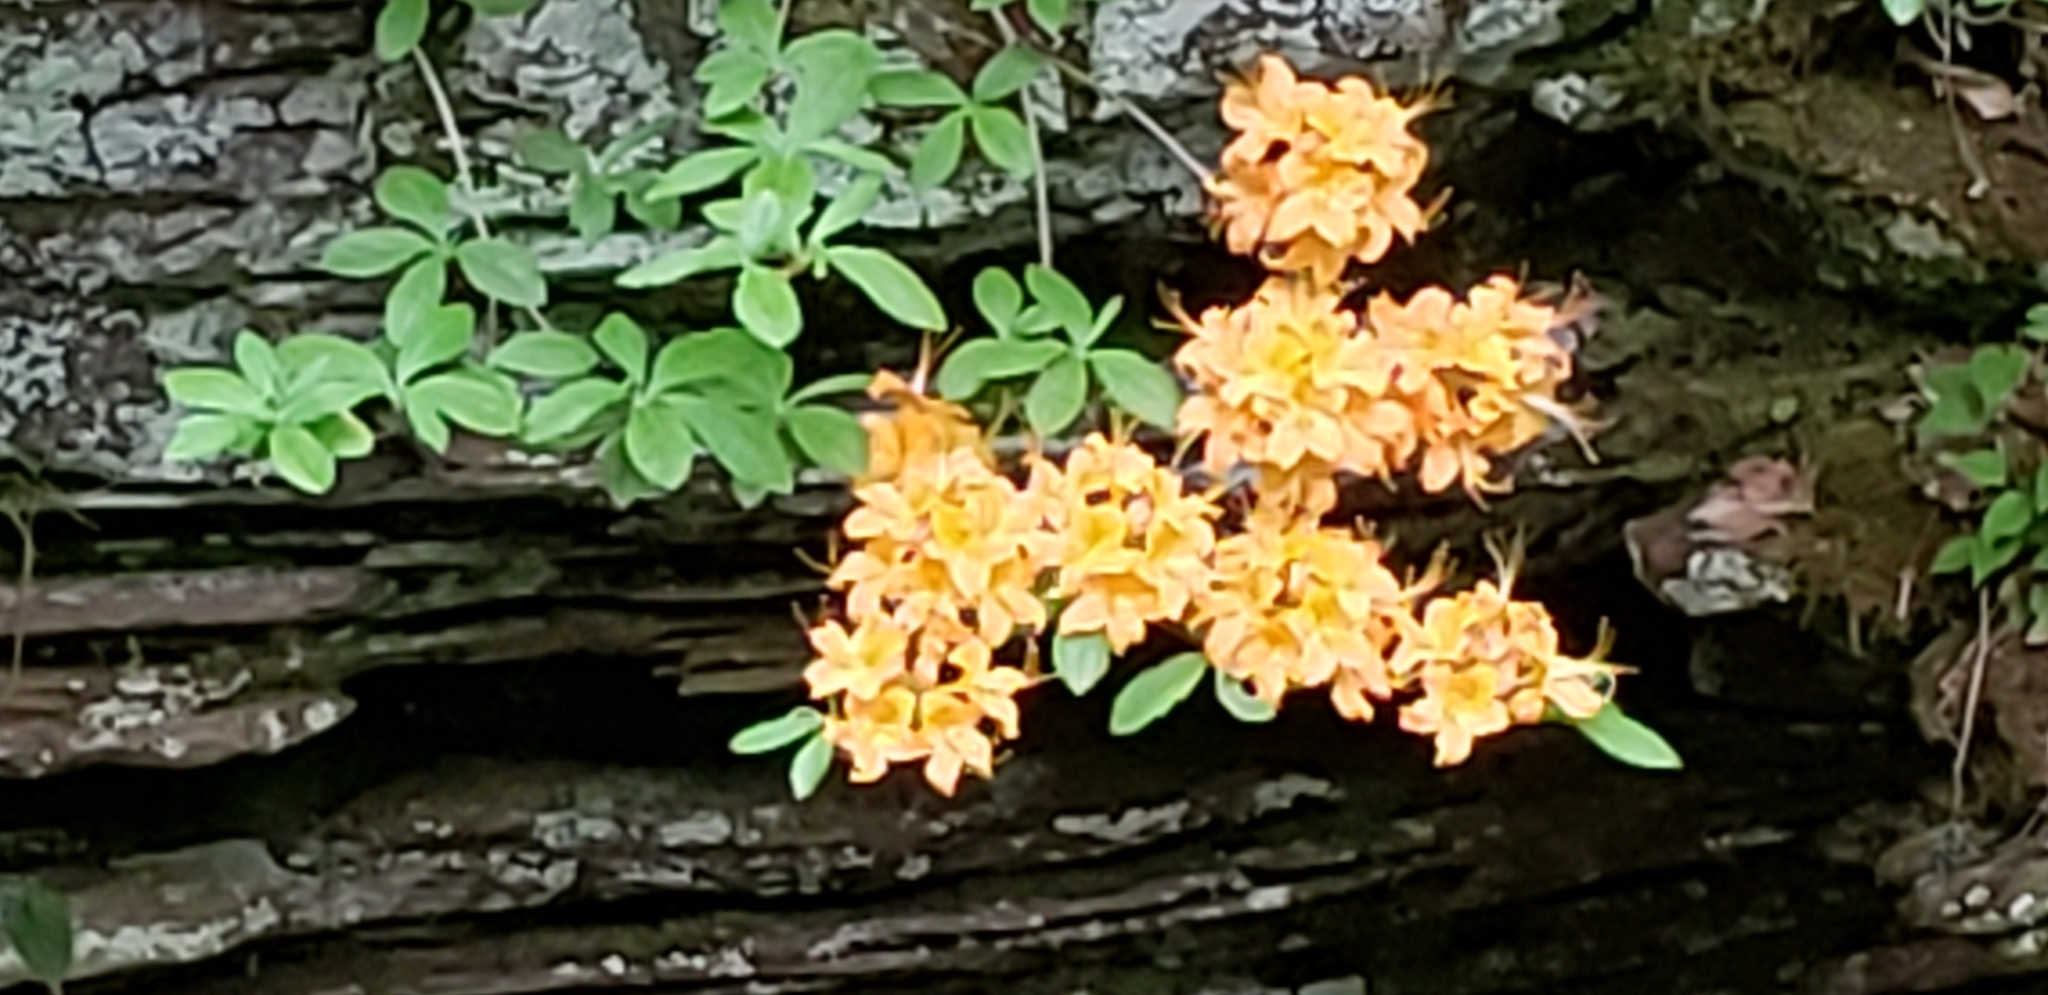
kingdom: Plantae
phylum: Tracheophyta
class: Magnoliopsida
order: Ericales
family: Ericaceae
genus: Rhododendron
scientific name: Rhododendron calendulaceum
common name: Flame azalea
